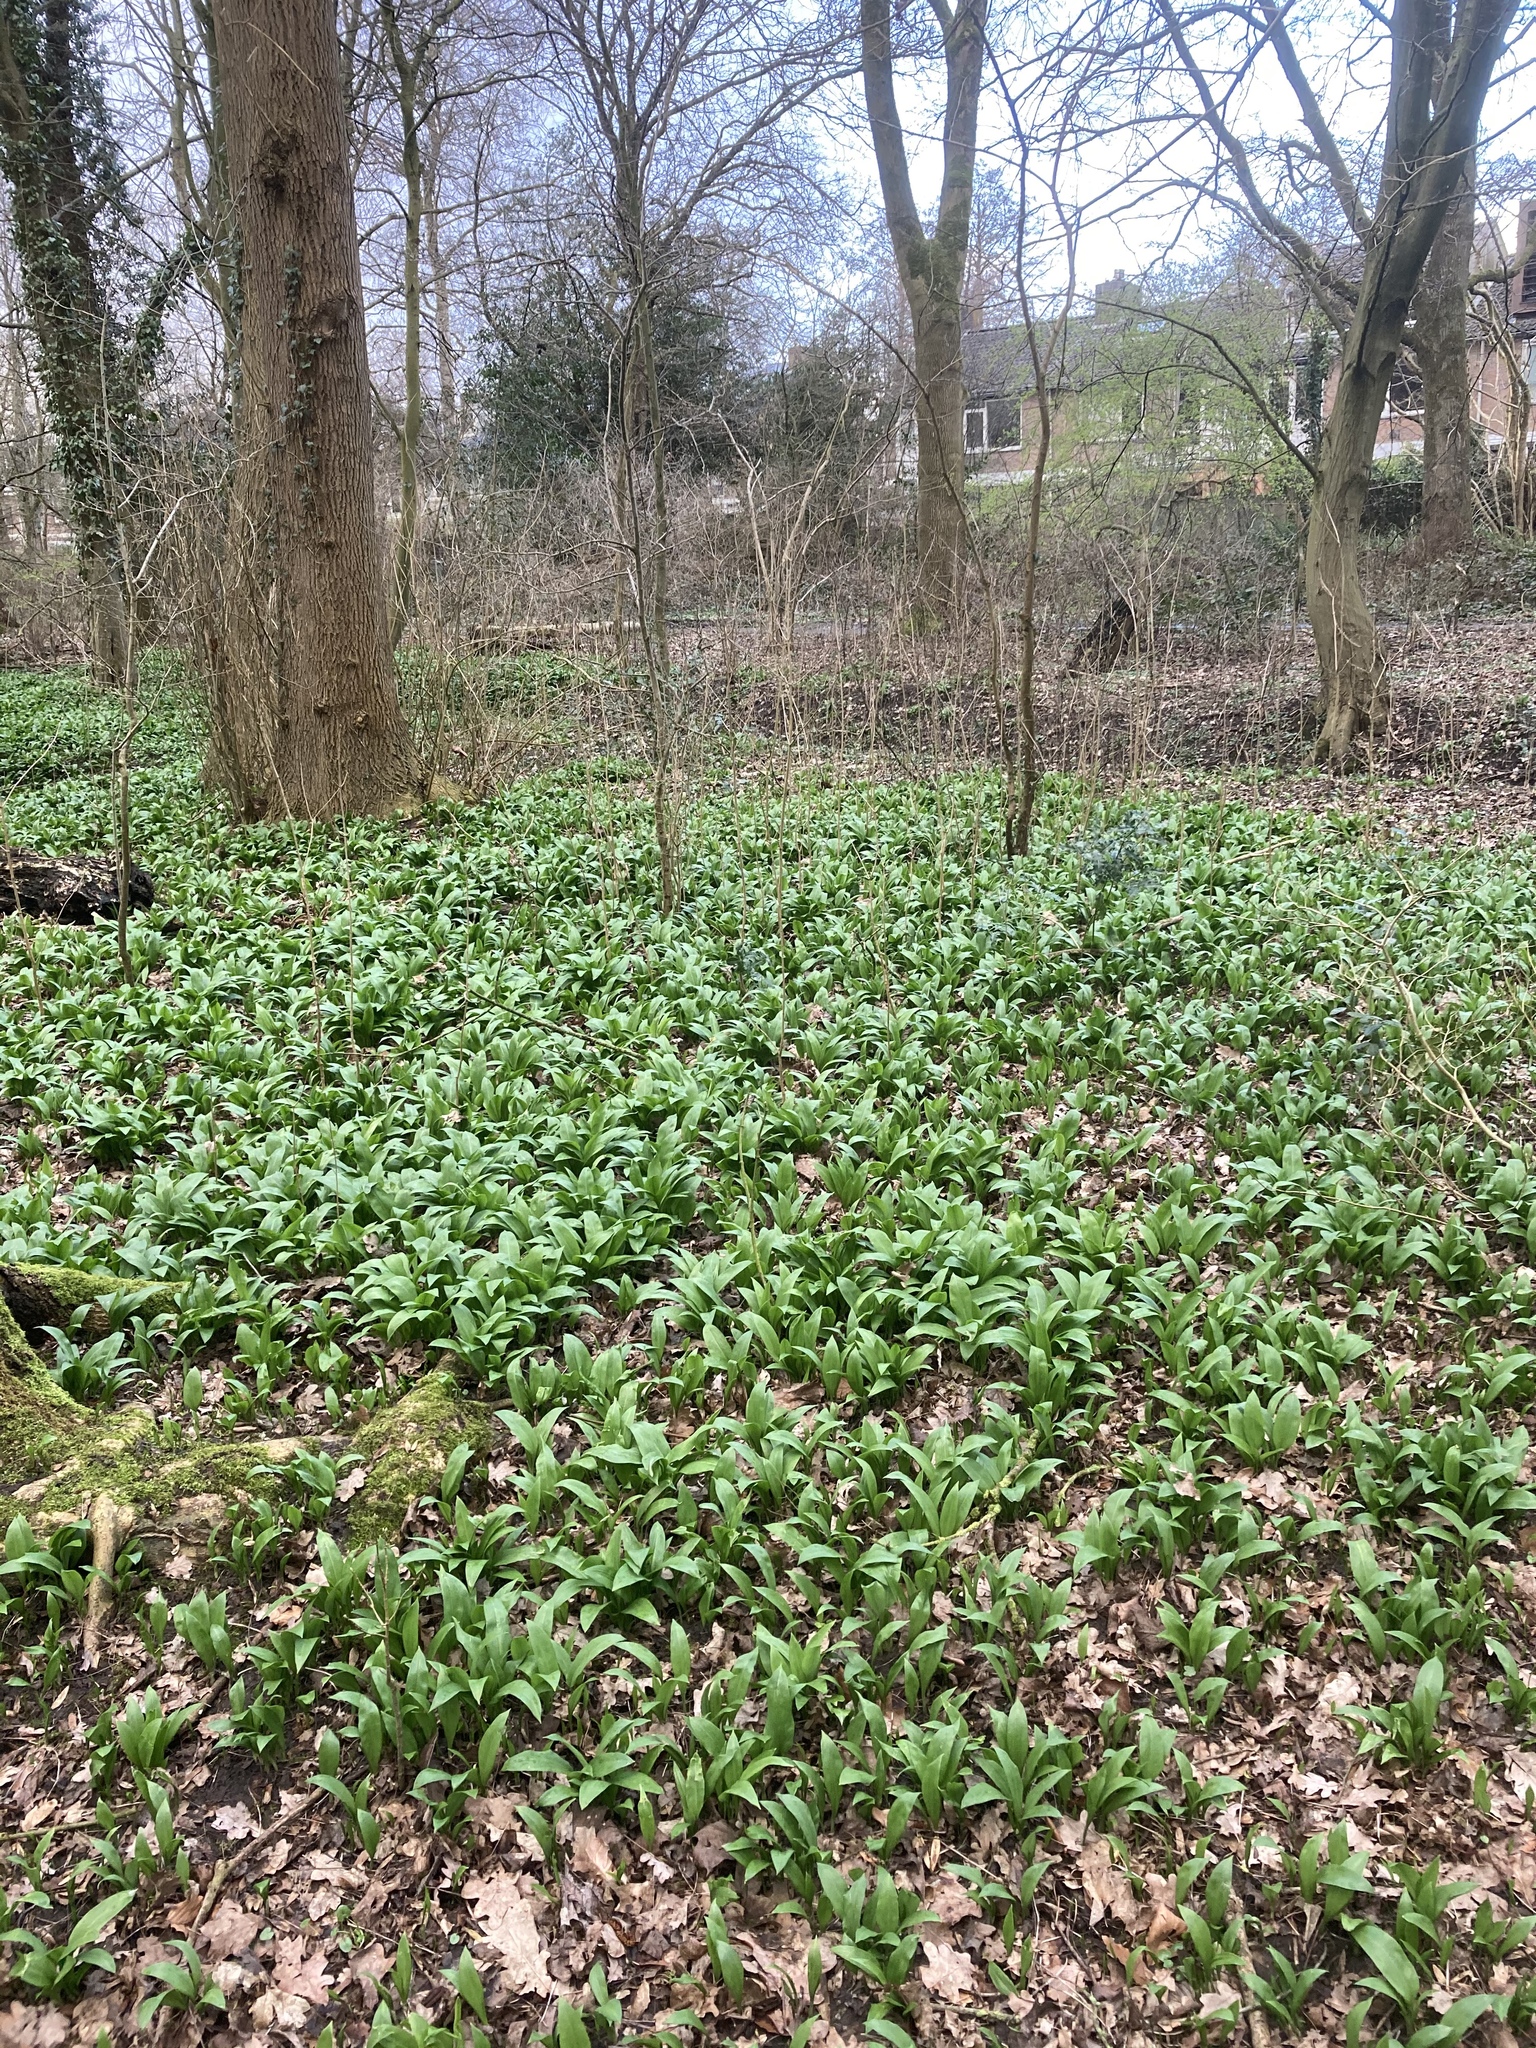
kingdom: Plantae
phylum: Tracheophyta
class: Liliopsida
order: Asparagales
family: Amaryllidaceae
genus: Allium
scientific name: Allium ursinum
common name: Ramsons
